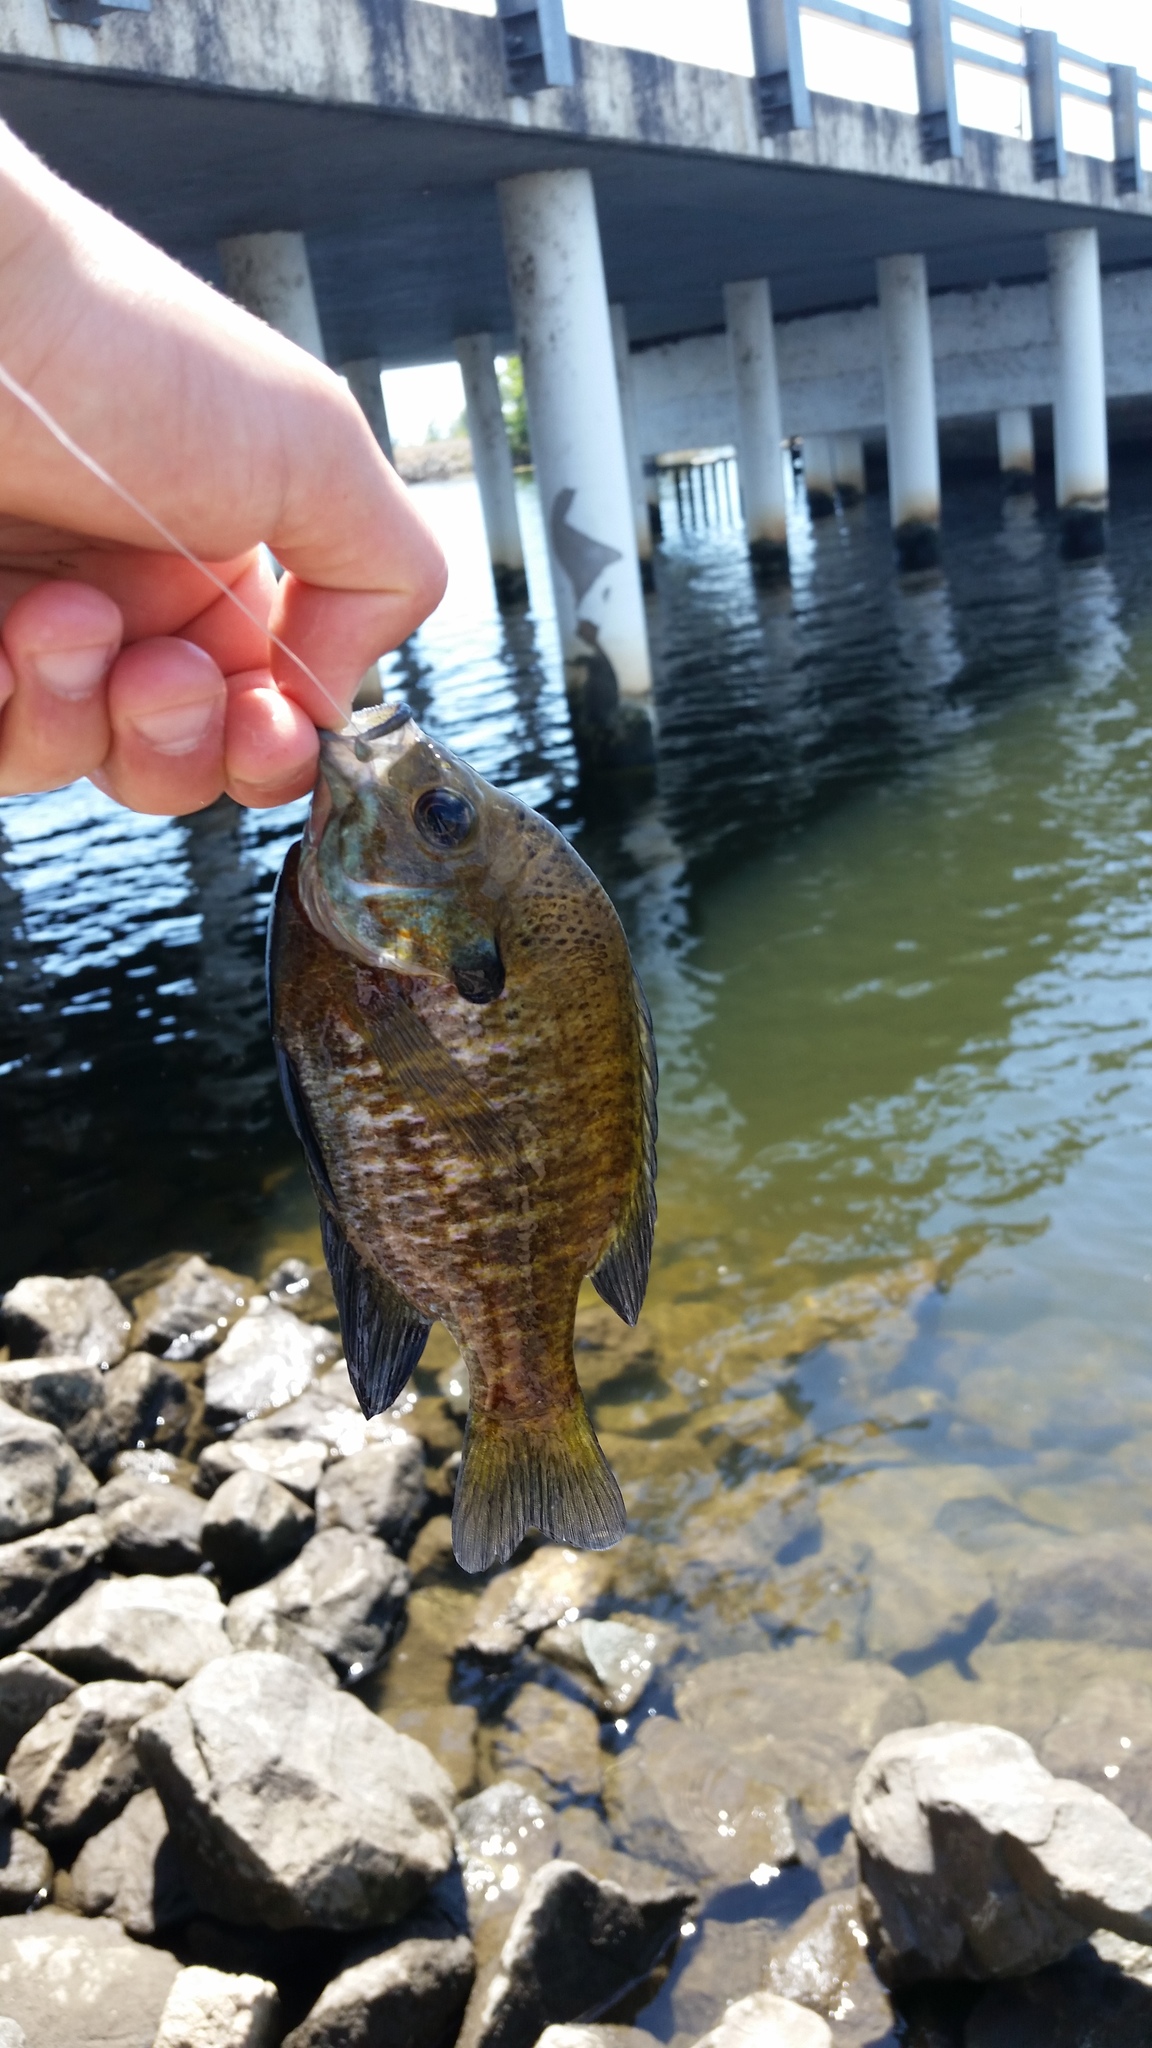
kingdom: Animalia
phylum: Chordata
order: Perciformes
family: Centrarchidae
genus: Lepomis
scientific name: Lepomis macrochirus
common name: Bluegill
